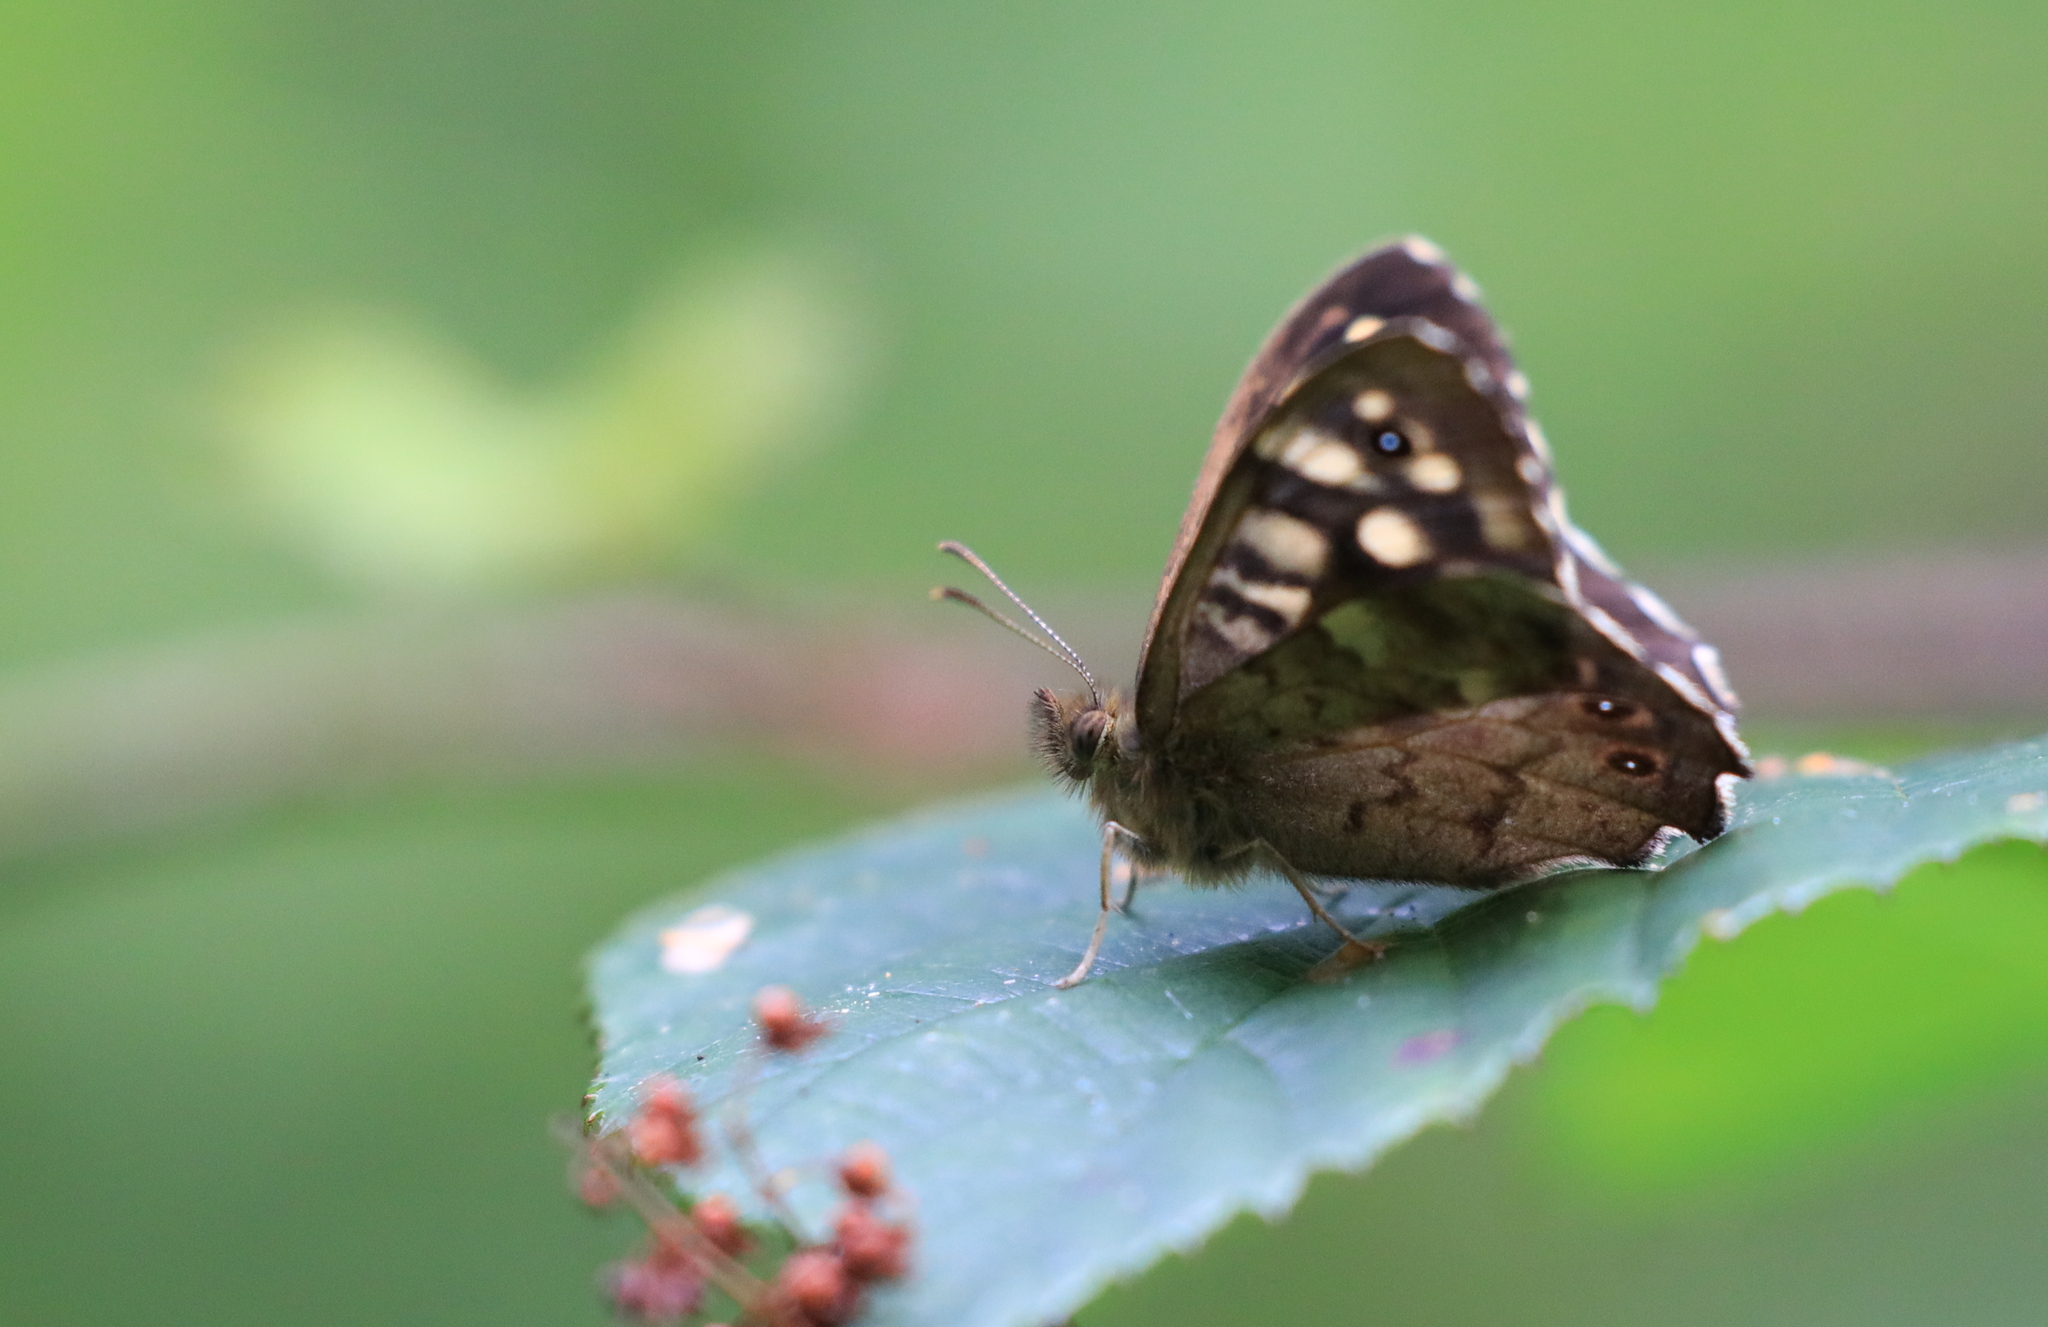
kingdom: Animalia
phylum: Arthropoda
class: Insecta
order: Lepidoptera
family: Nymphalidae
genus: Pararge
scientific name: Pararge aegeria
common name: Speckled wood
